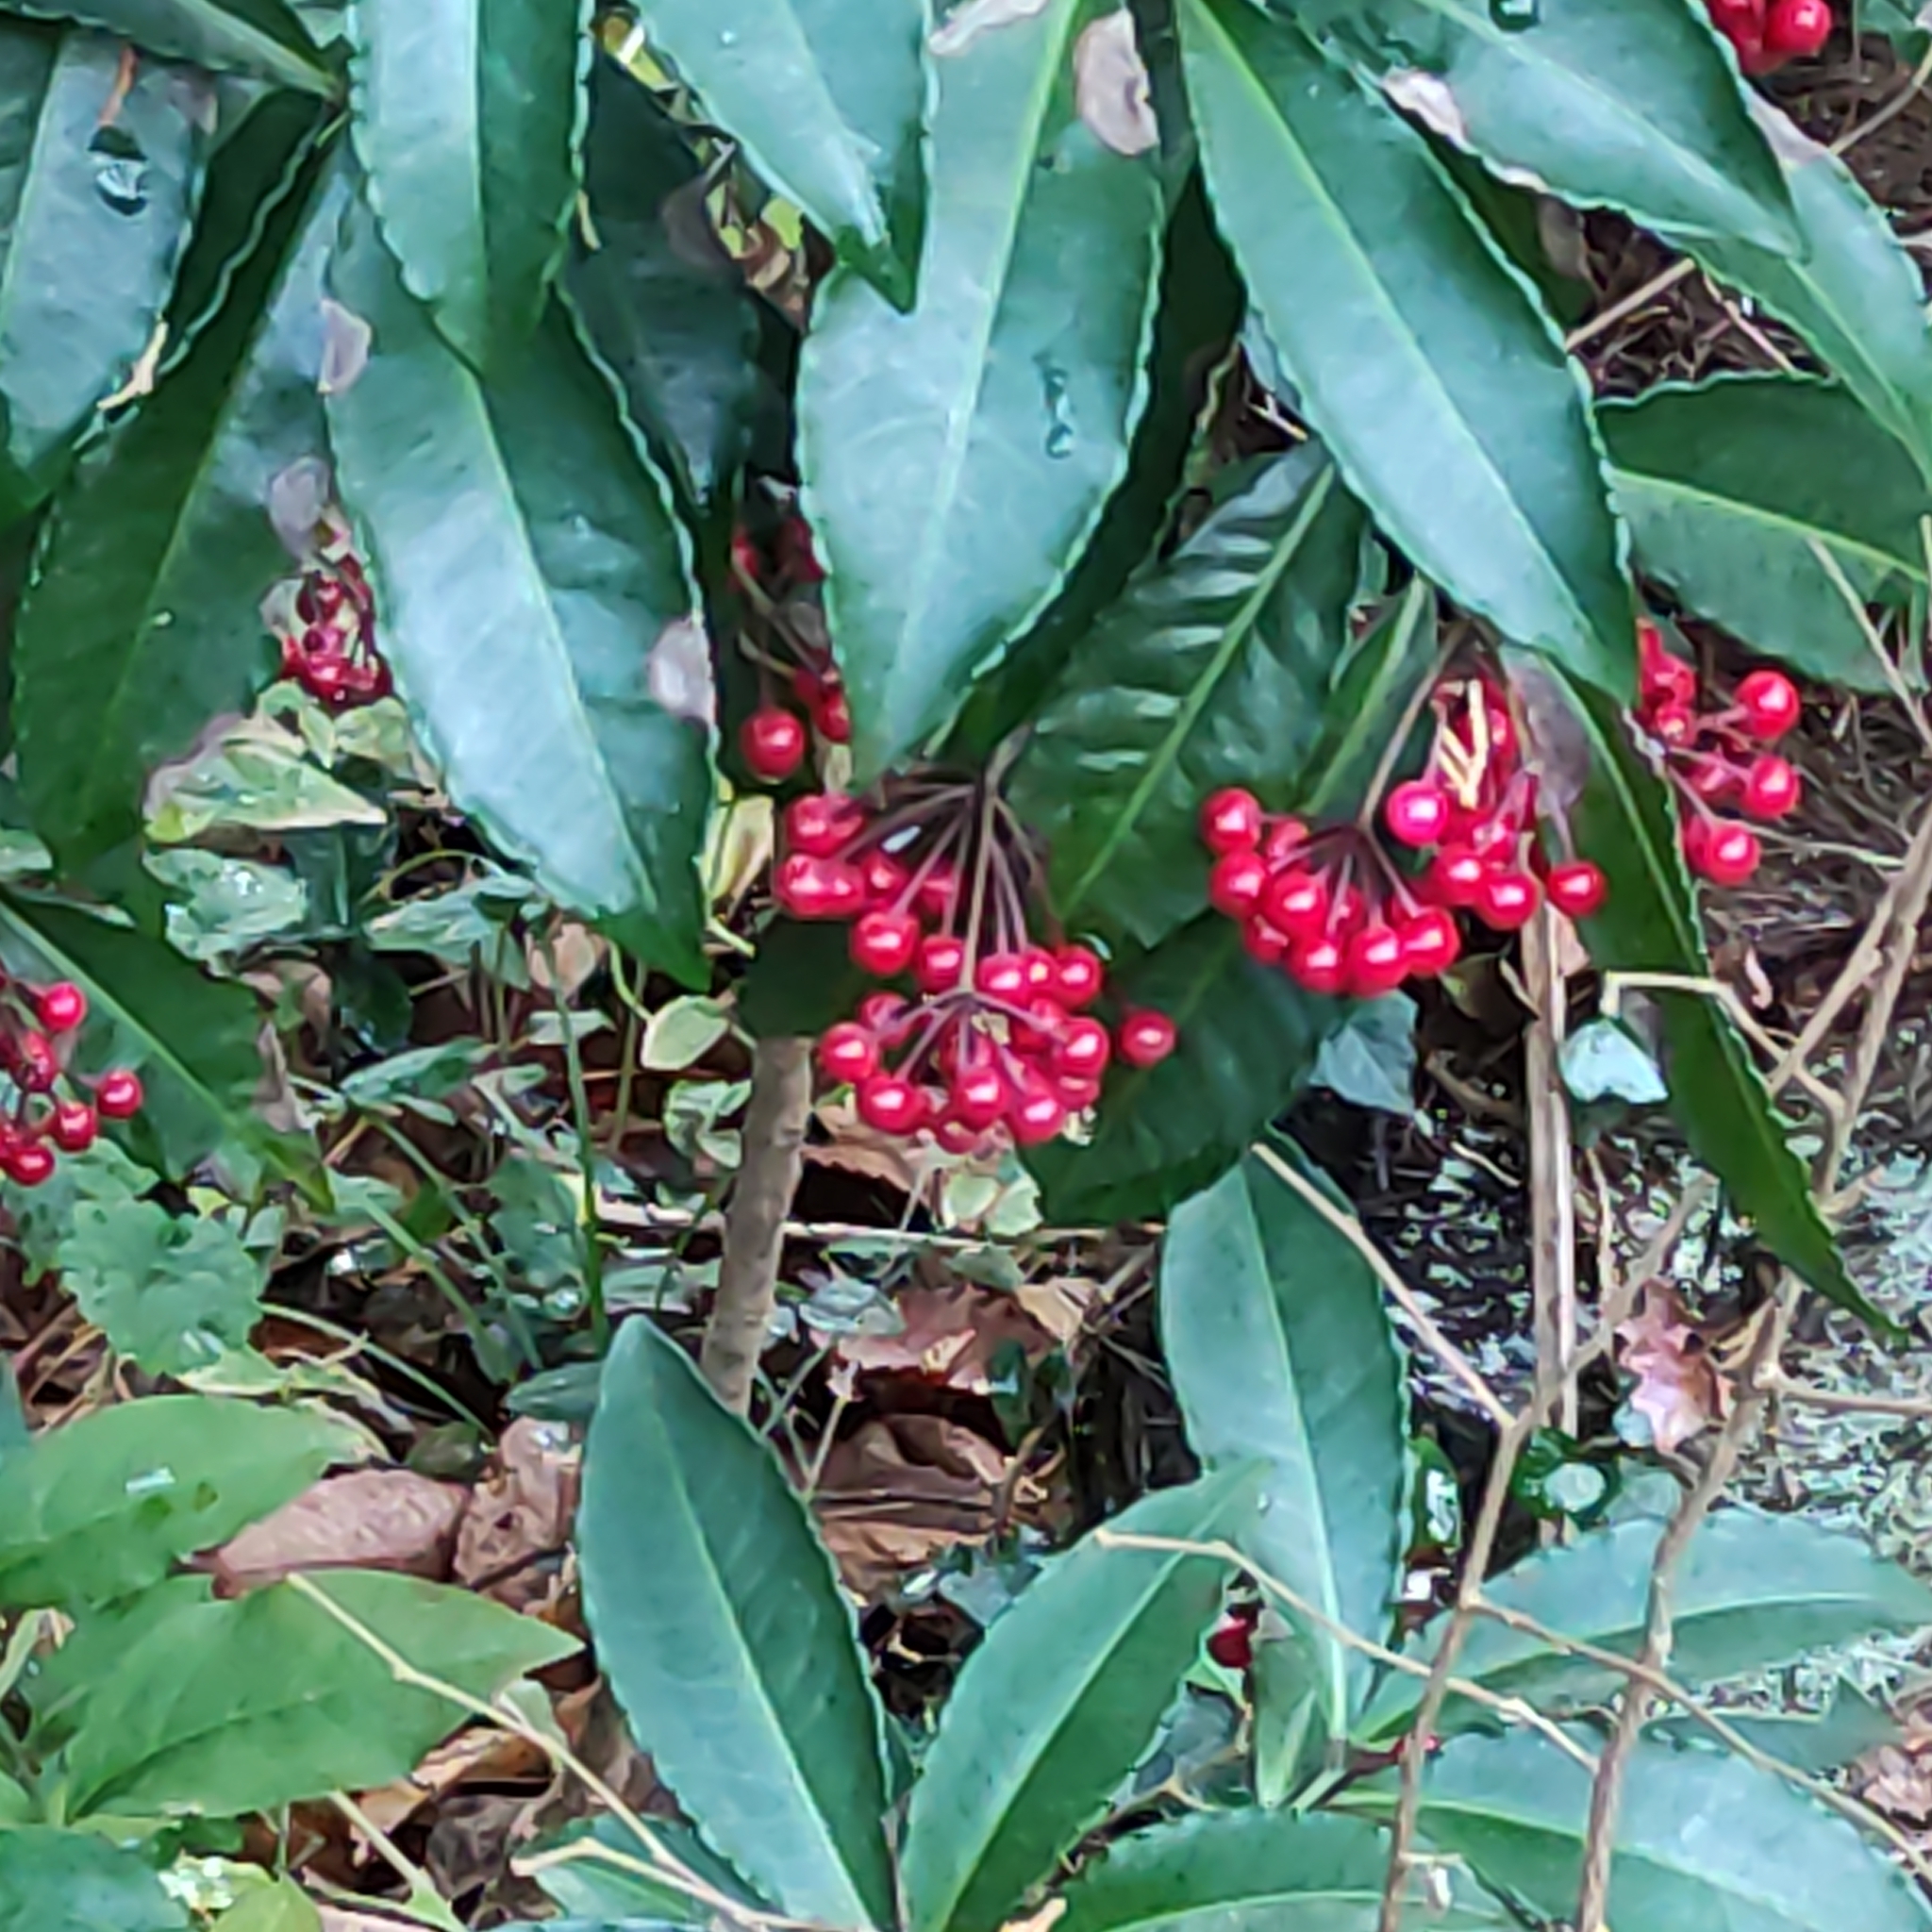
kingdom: Plantae
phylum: Tracheophyta
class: Magnoliopsida
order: Ericales
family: Primulaceae
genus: Ardisia
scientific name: Ardisia crenata
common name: Hen's eyes
